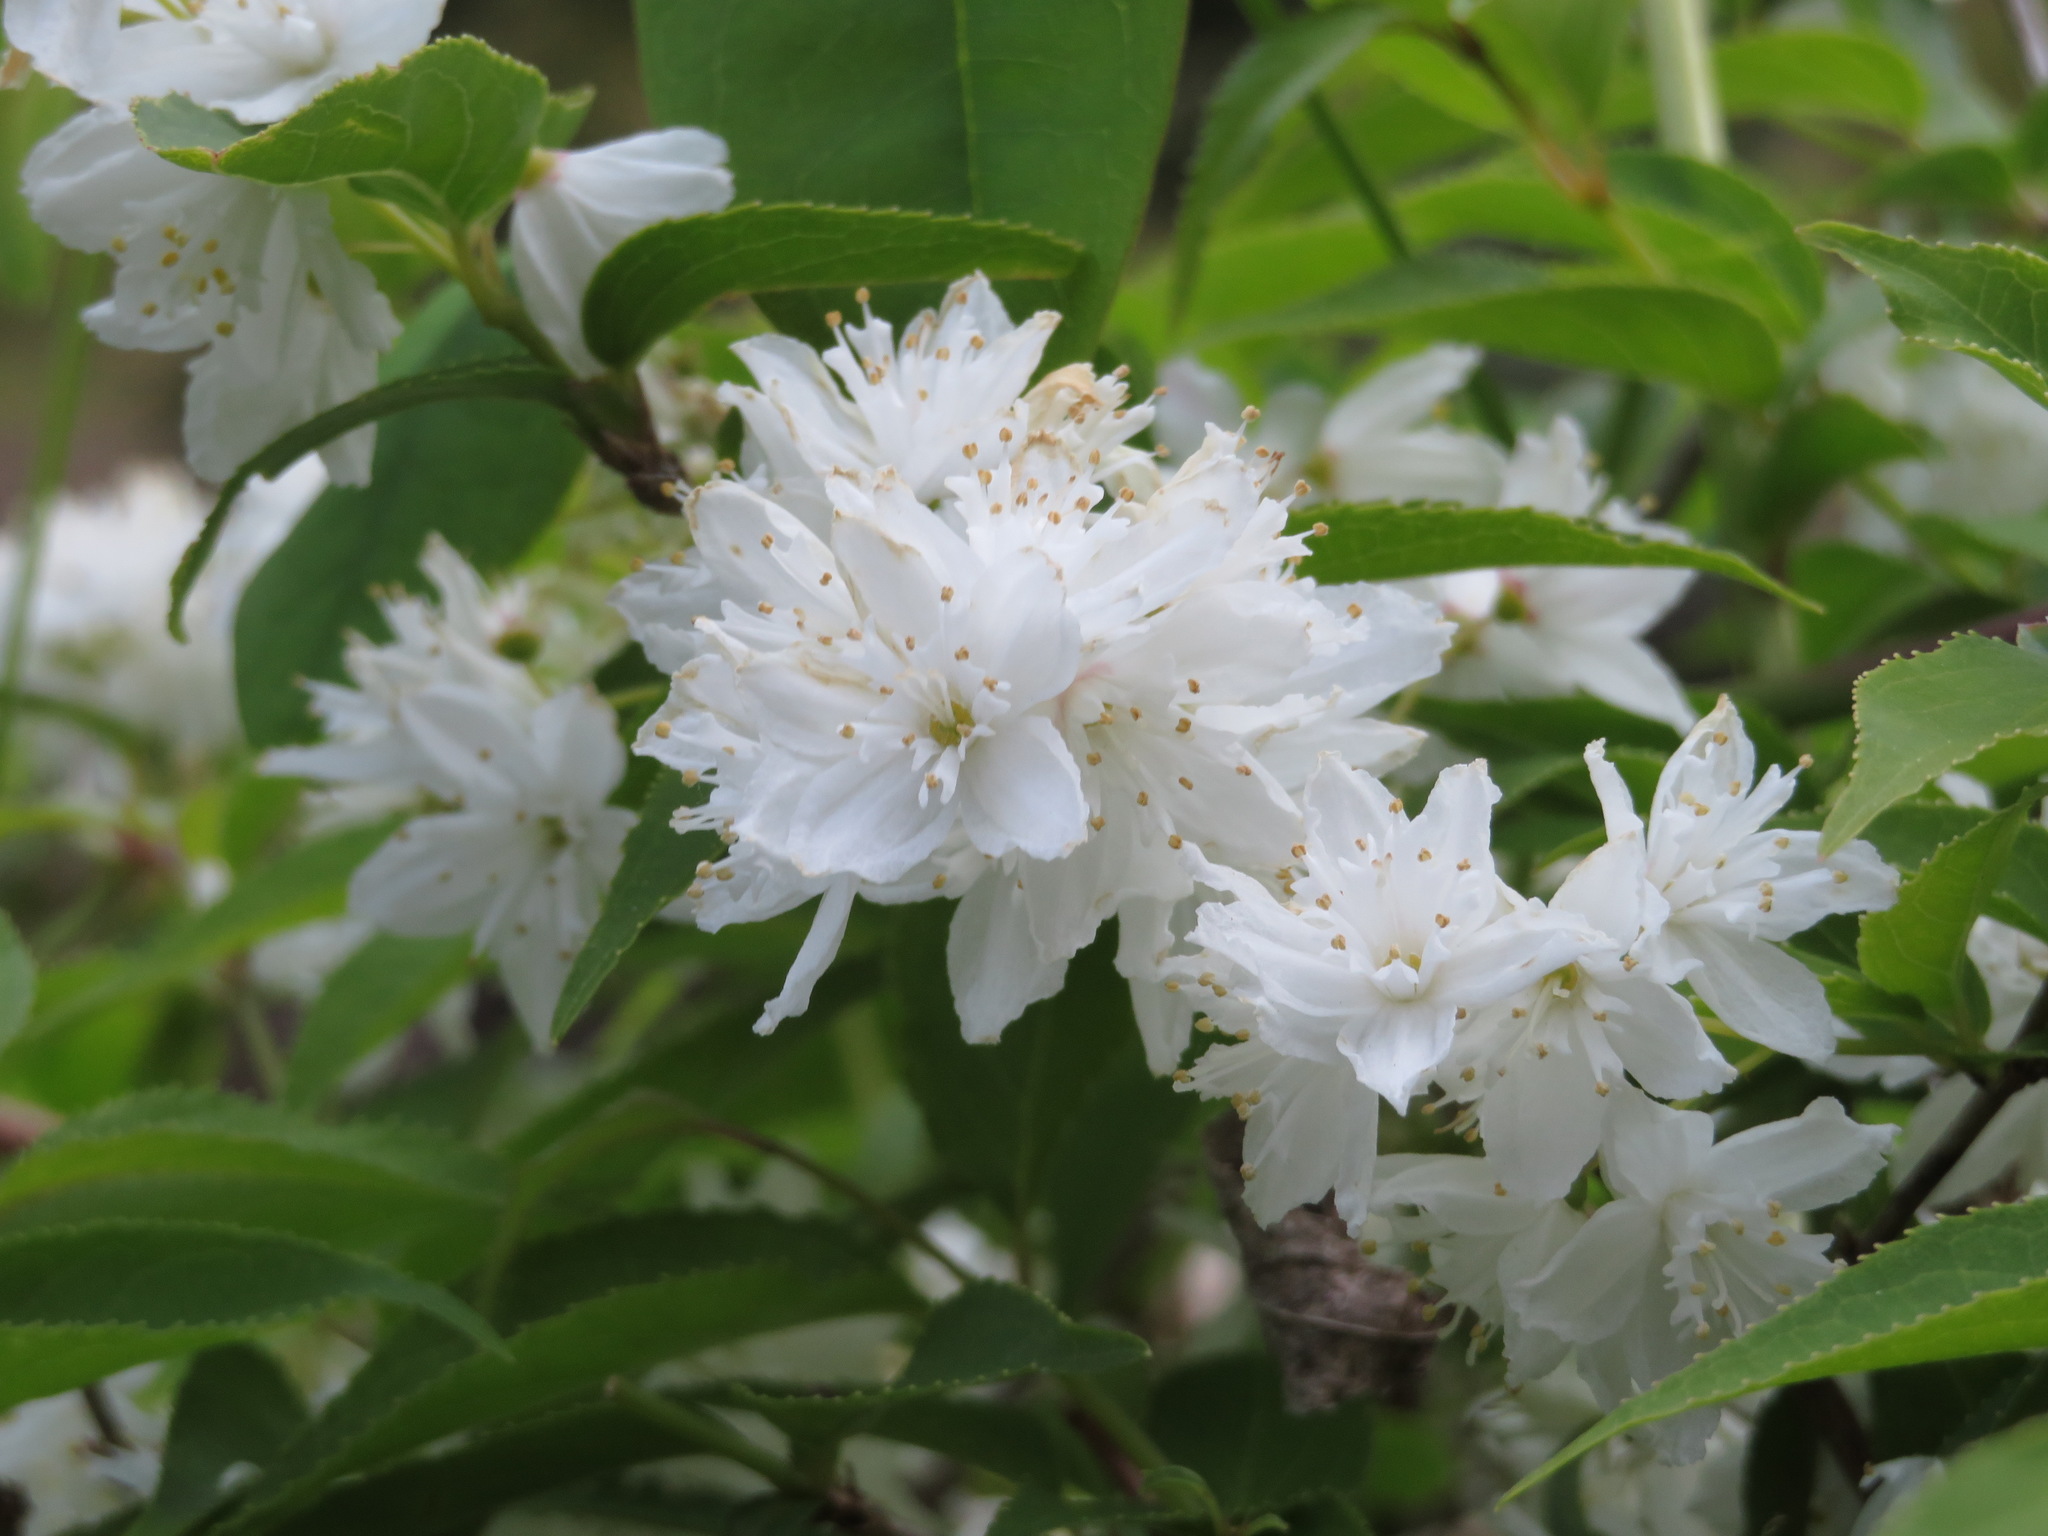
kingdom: Plantae
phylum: Tracheophyta
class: Magnoliopsida
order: Cornales
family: Hydrangeaceae
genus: Deutzia
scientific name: Deutzia gracilis
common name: Slender pride of rochester
